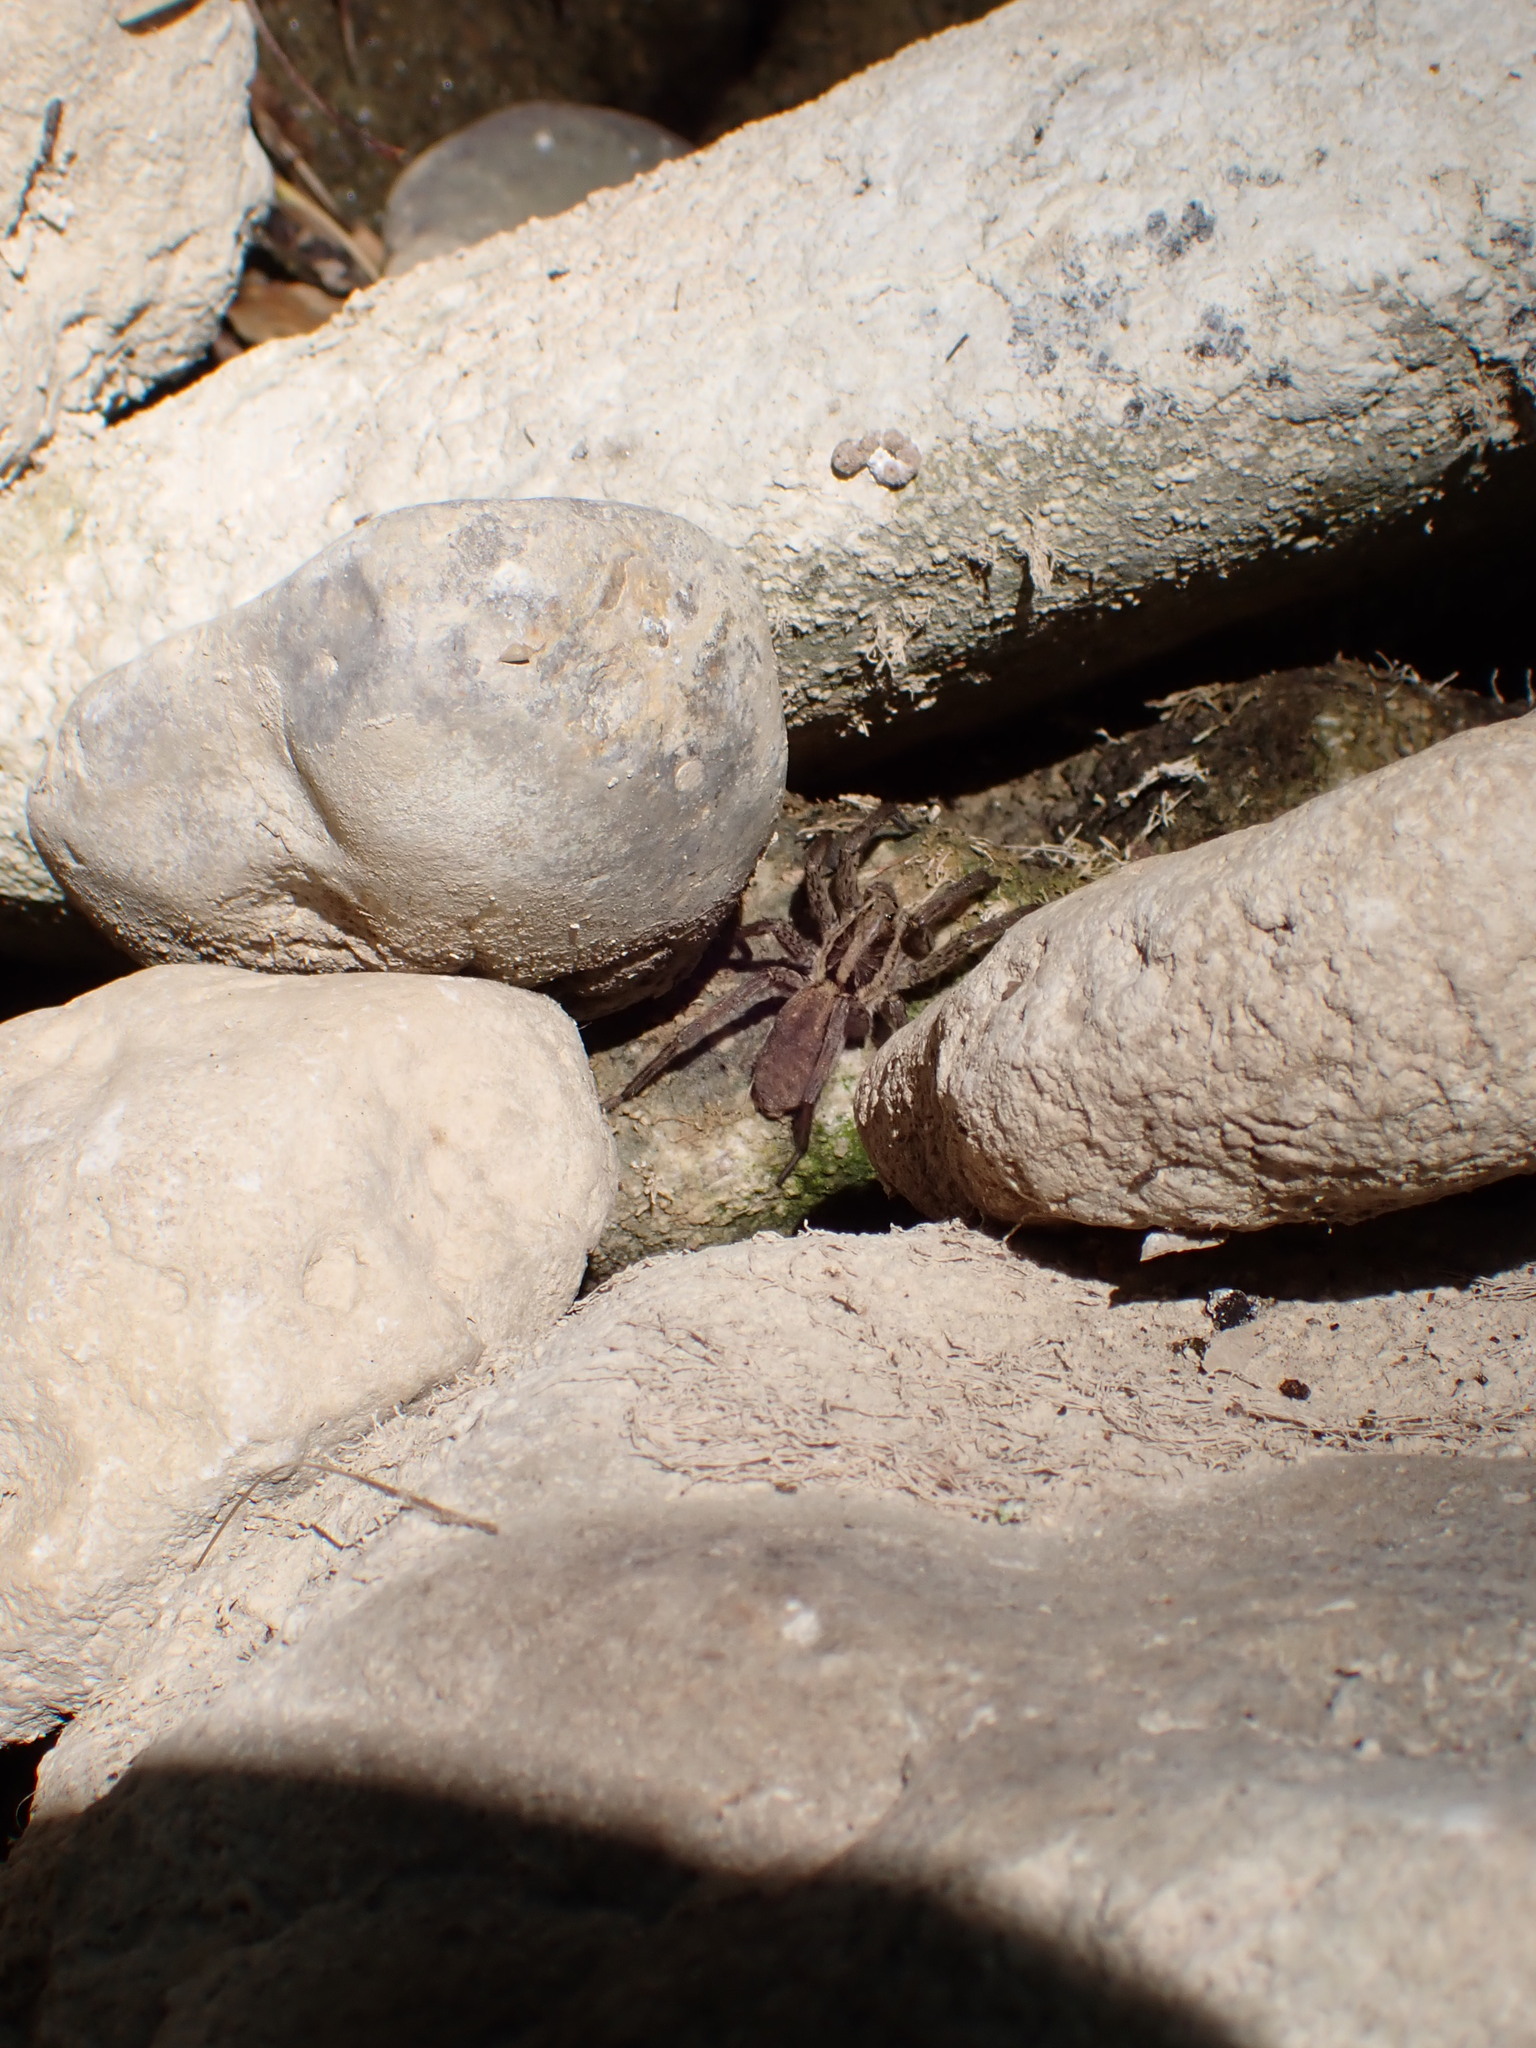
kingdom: Animalia
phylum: Arthropoda
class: Arachnida
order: Araneae
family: Lycosidae
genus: Hogna
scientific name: Hogna radiata
